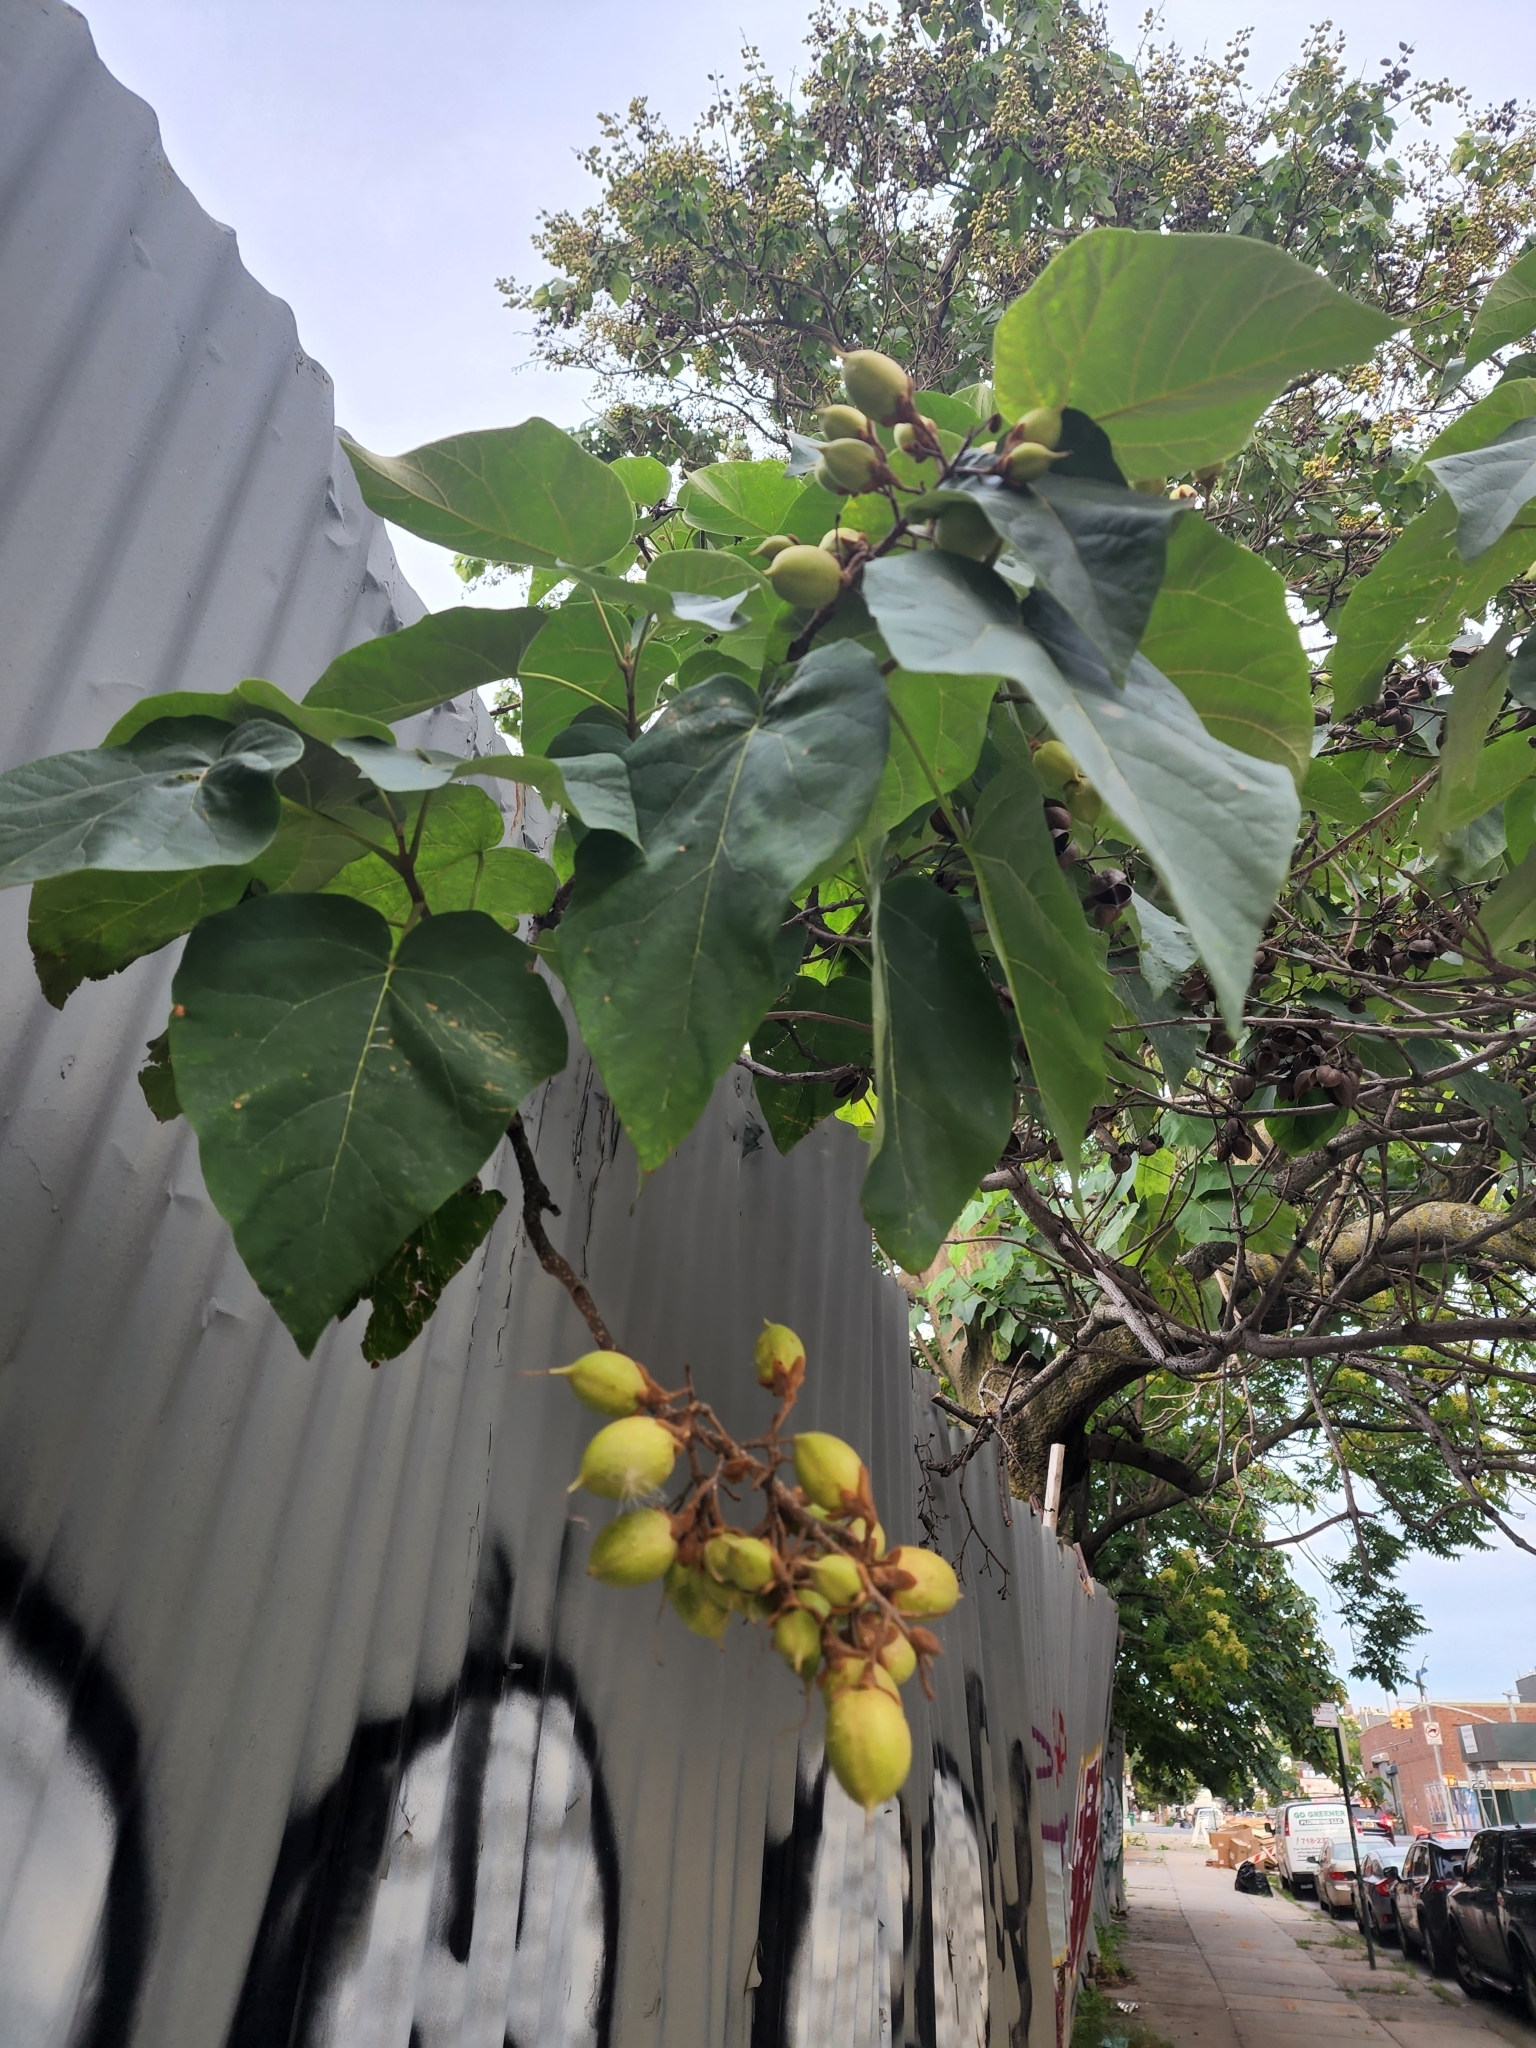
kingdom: Plantae
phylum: Tracheophyta
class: Magnoliopsida
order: Lamiales
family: Paulowniaceae
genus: Paulownia
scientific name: Paulownia tomentosa
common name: Foxglove-tree
